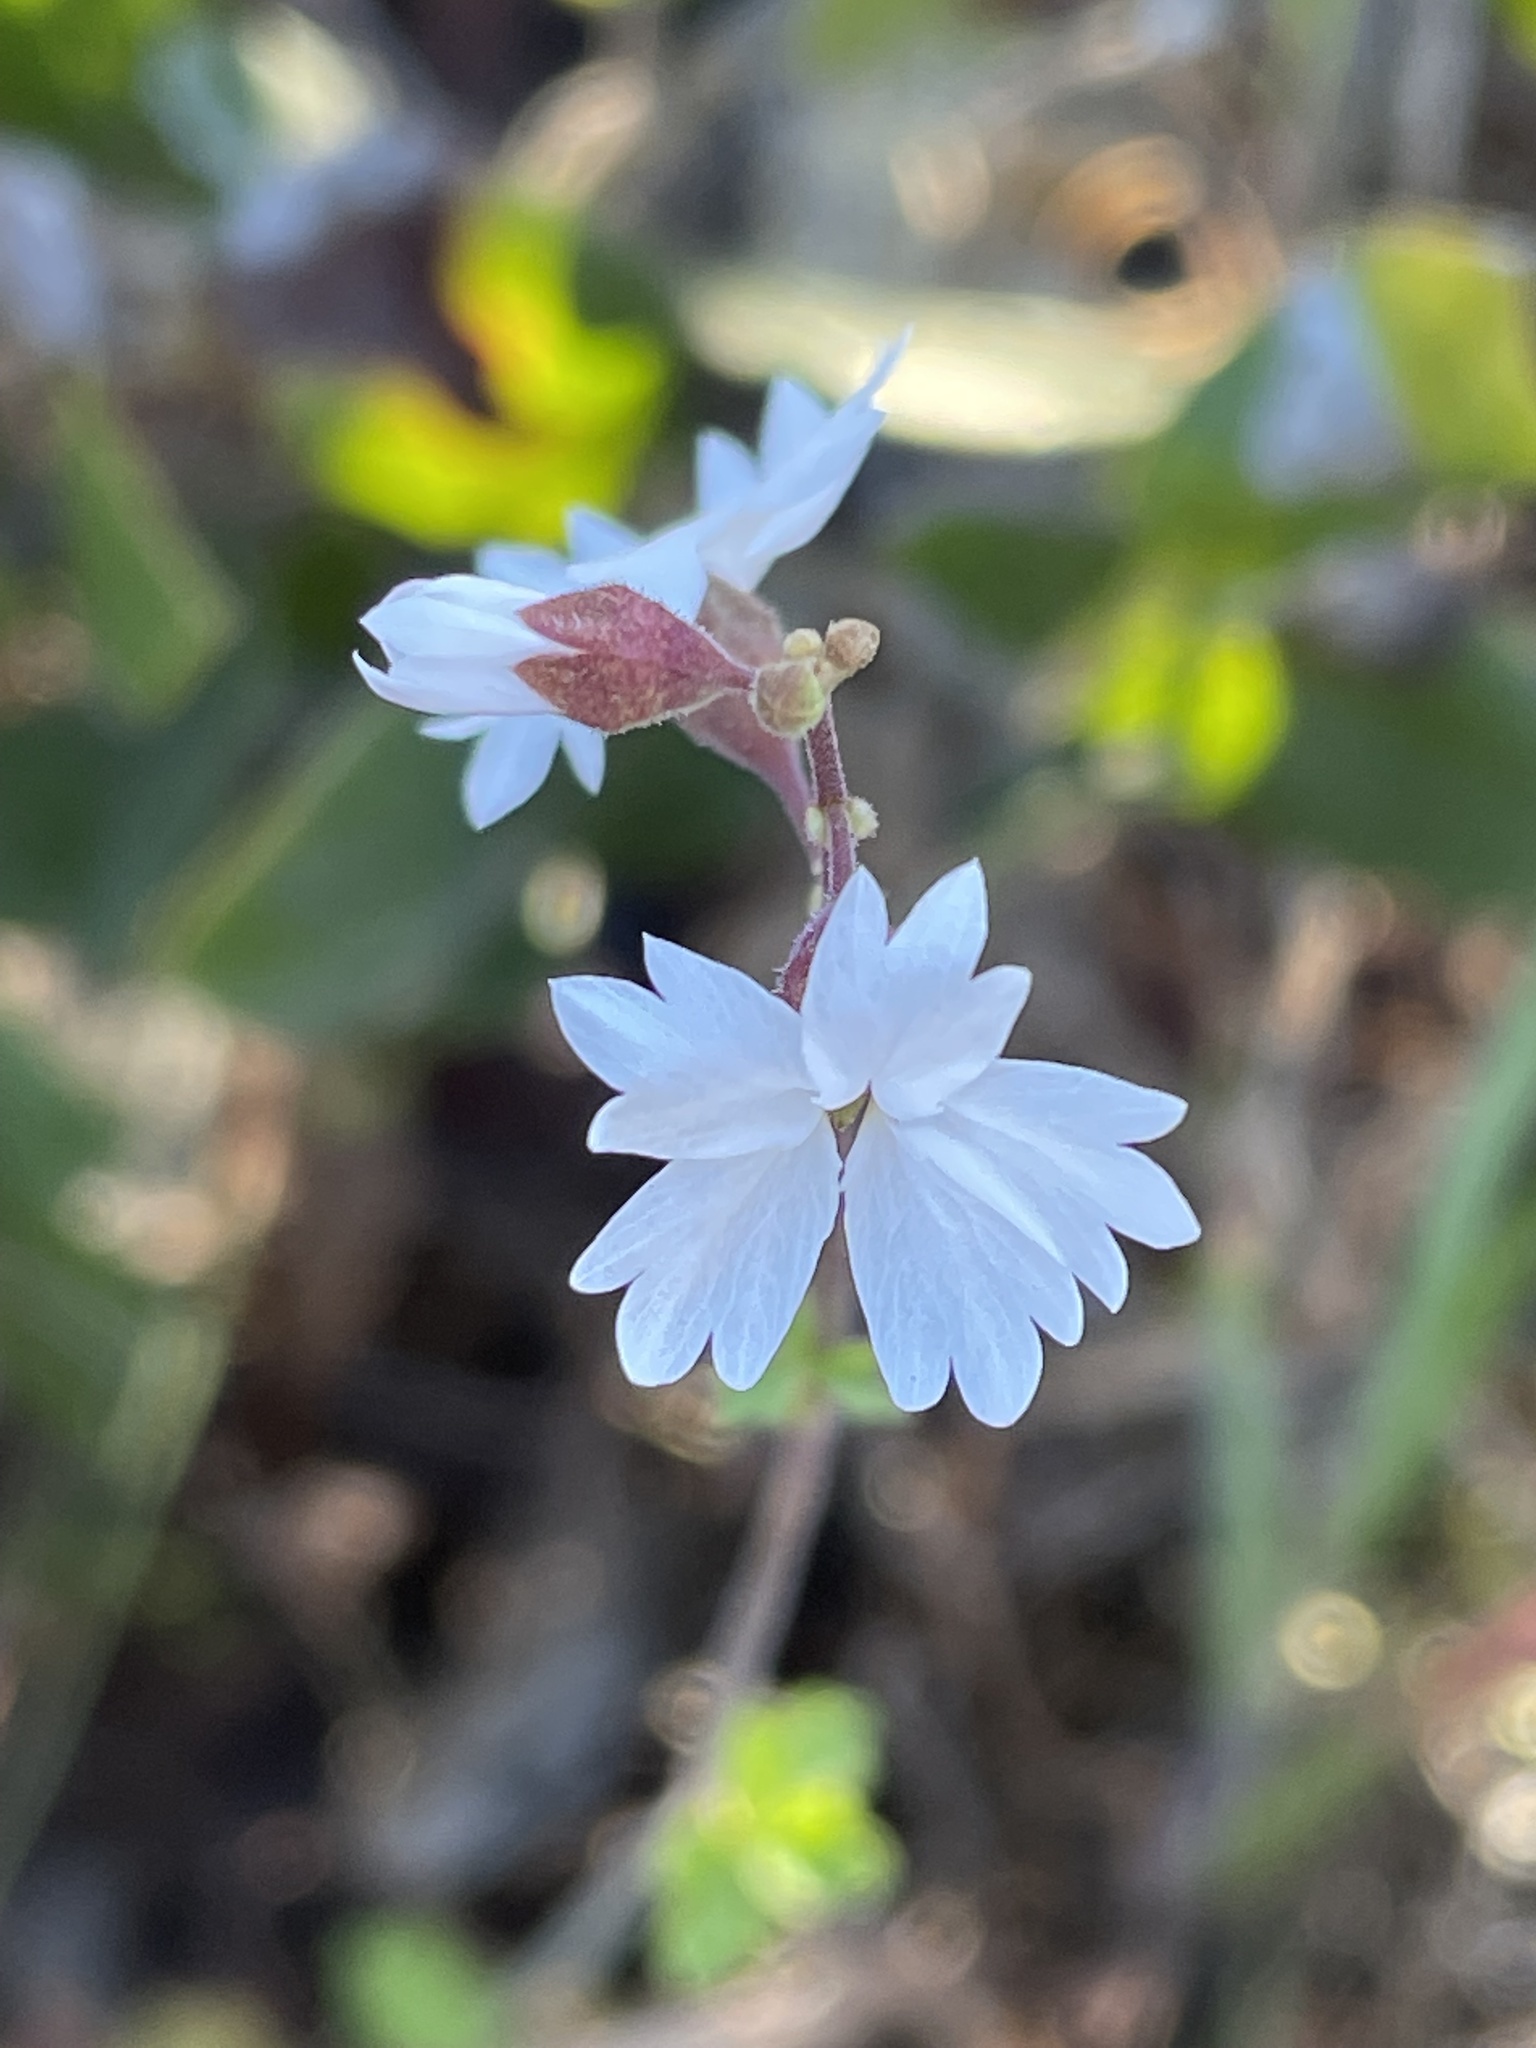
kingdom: Plantae
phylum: Tracheophyta
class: Magnoliopsida
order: Saxifragales
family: Saxifragaceae
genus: Lithophragma
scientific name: Lithophragma affine
